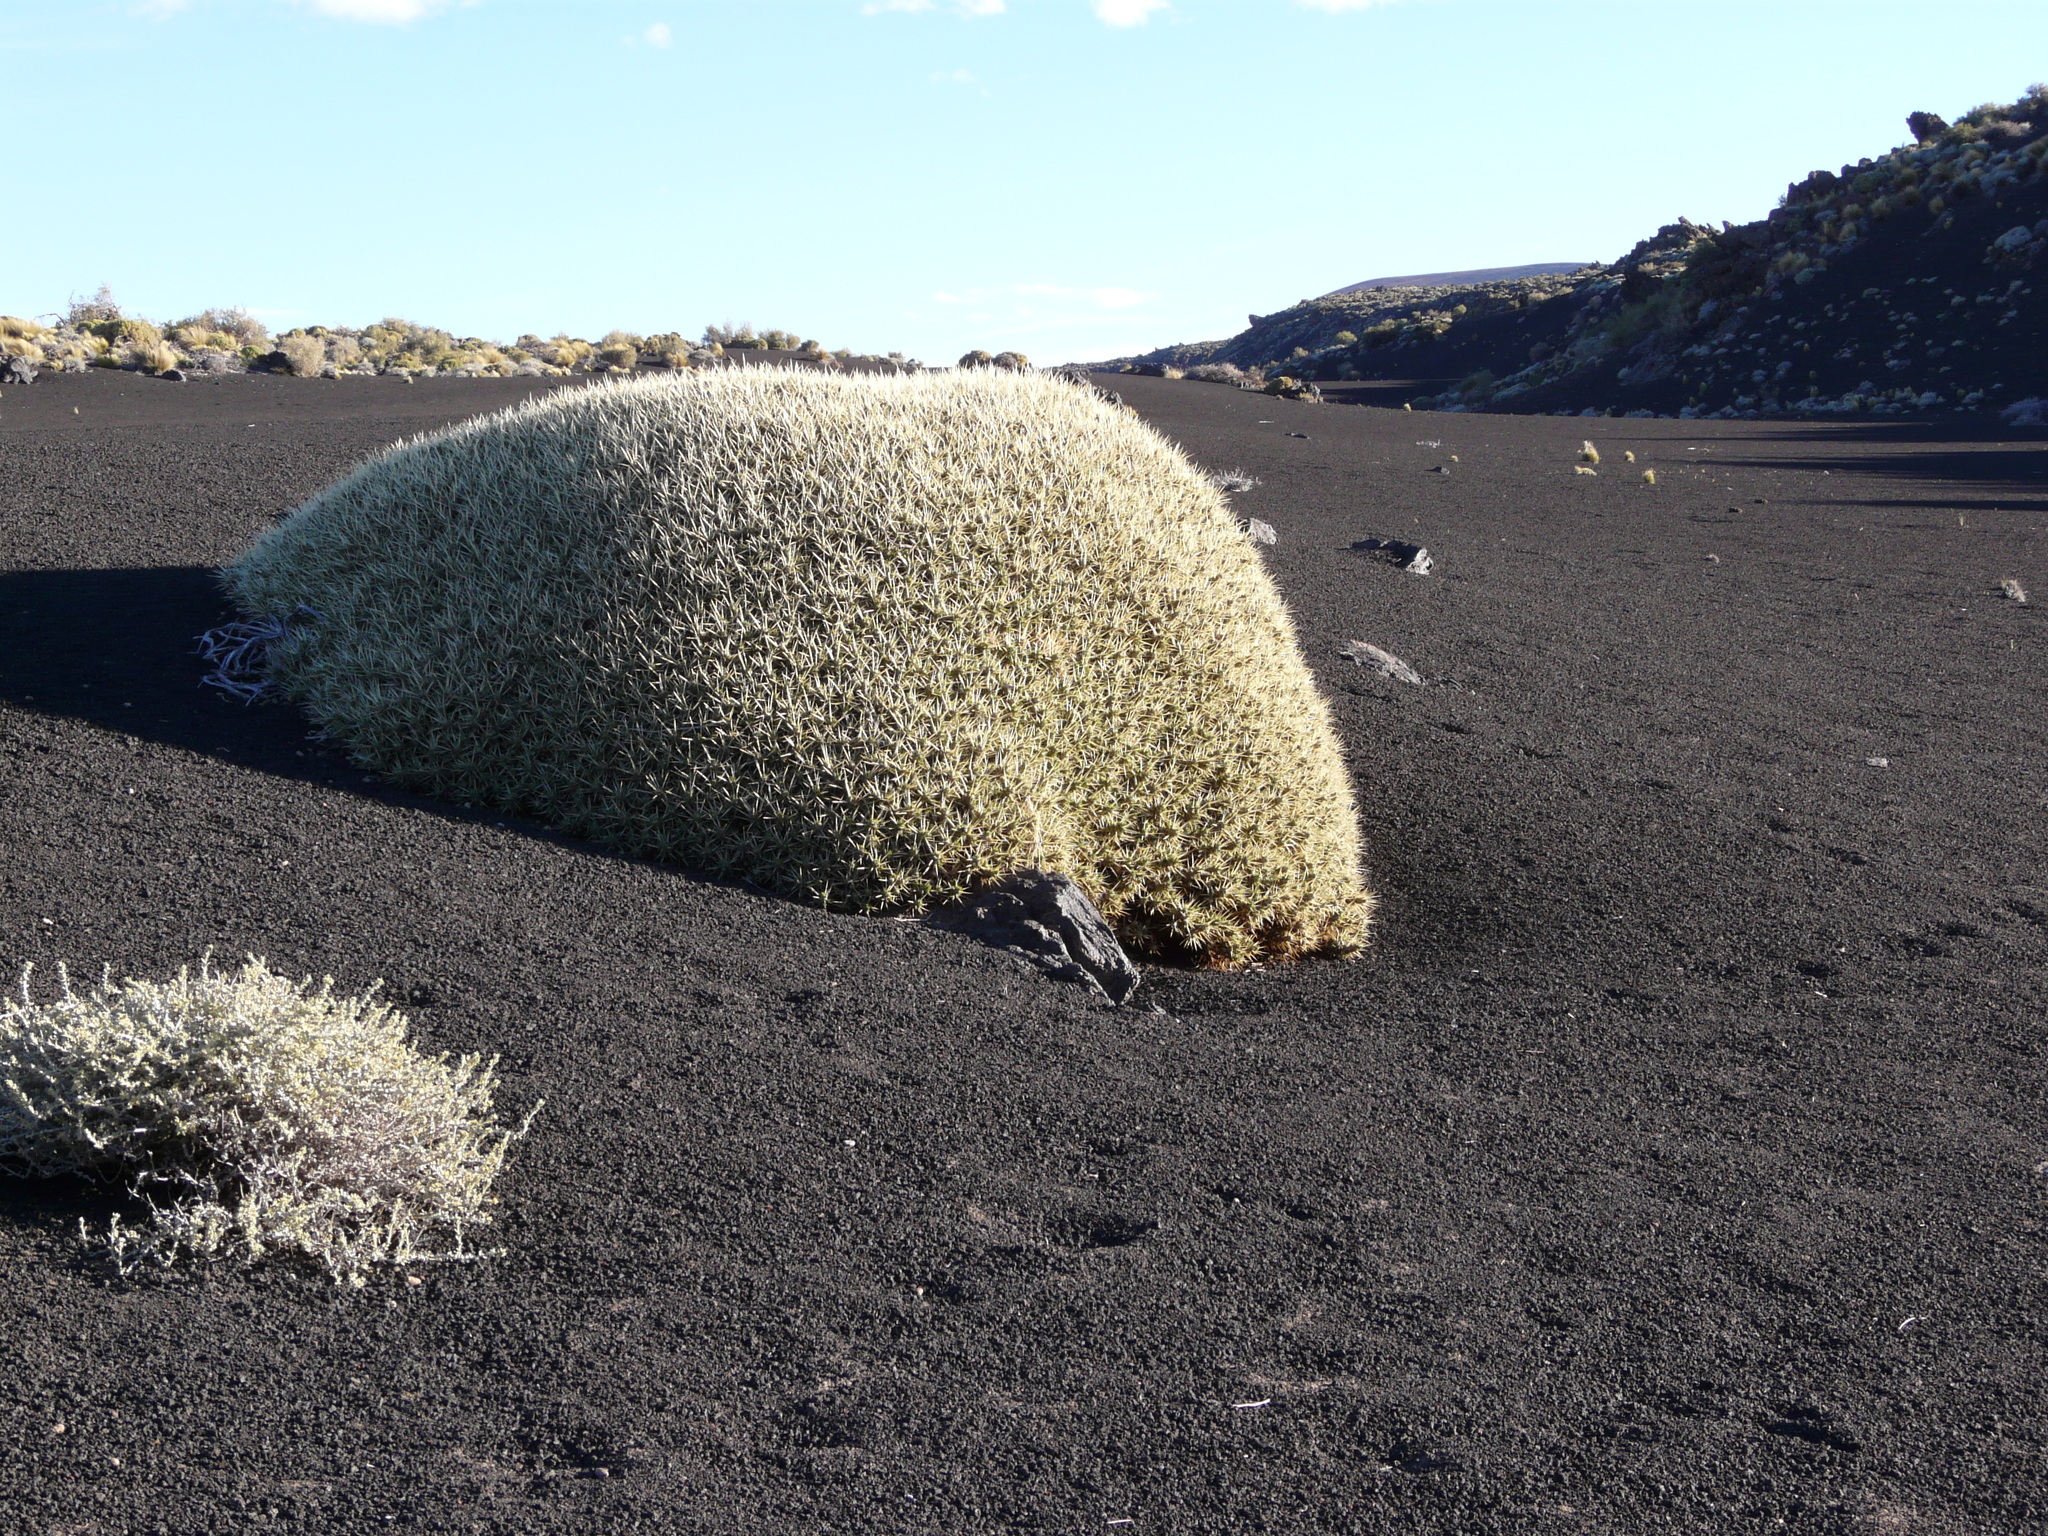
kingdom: Plantae
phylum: Tracheophyta
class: Magnoliopsida
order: Caryophyllales
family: Cactaceae
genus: Maihuenia
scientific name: Maihuenia patagonica
